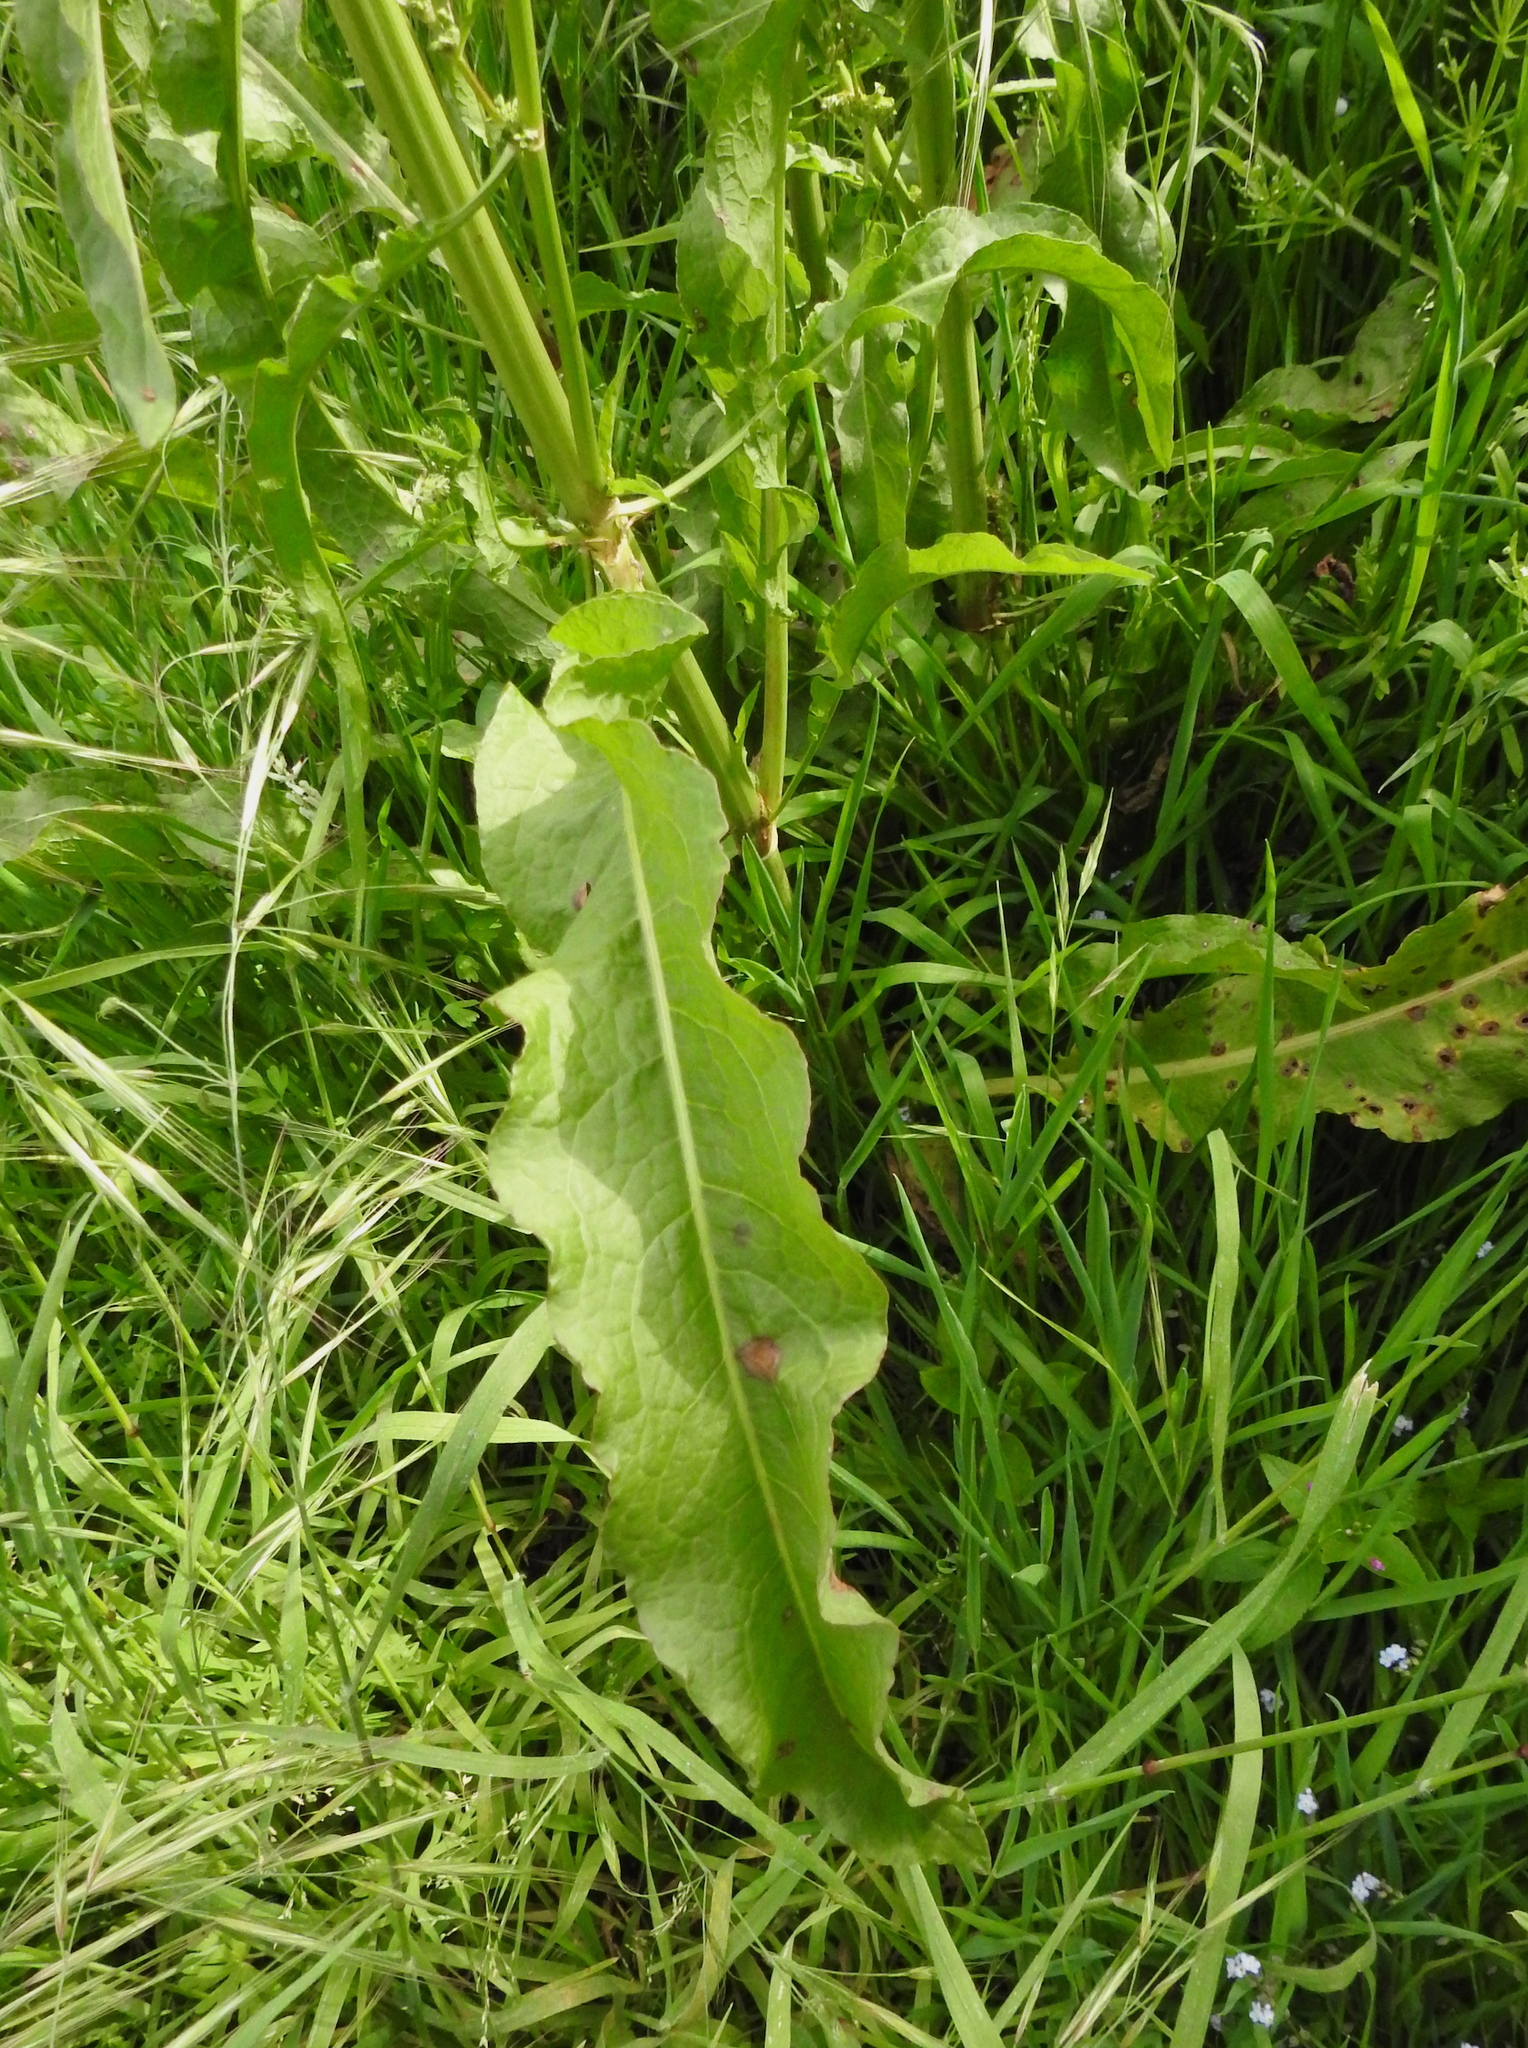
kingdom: Plantae
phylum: Tracheophyta
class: Magnoliopsida
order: Caryophyllales
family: Polygonaceae
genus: Rumex
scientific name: Rumex crispus
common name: Curled dock
